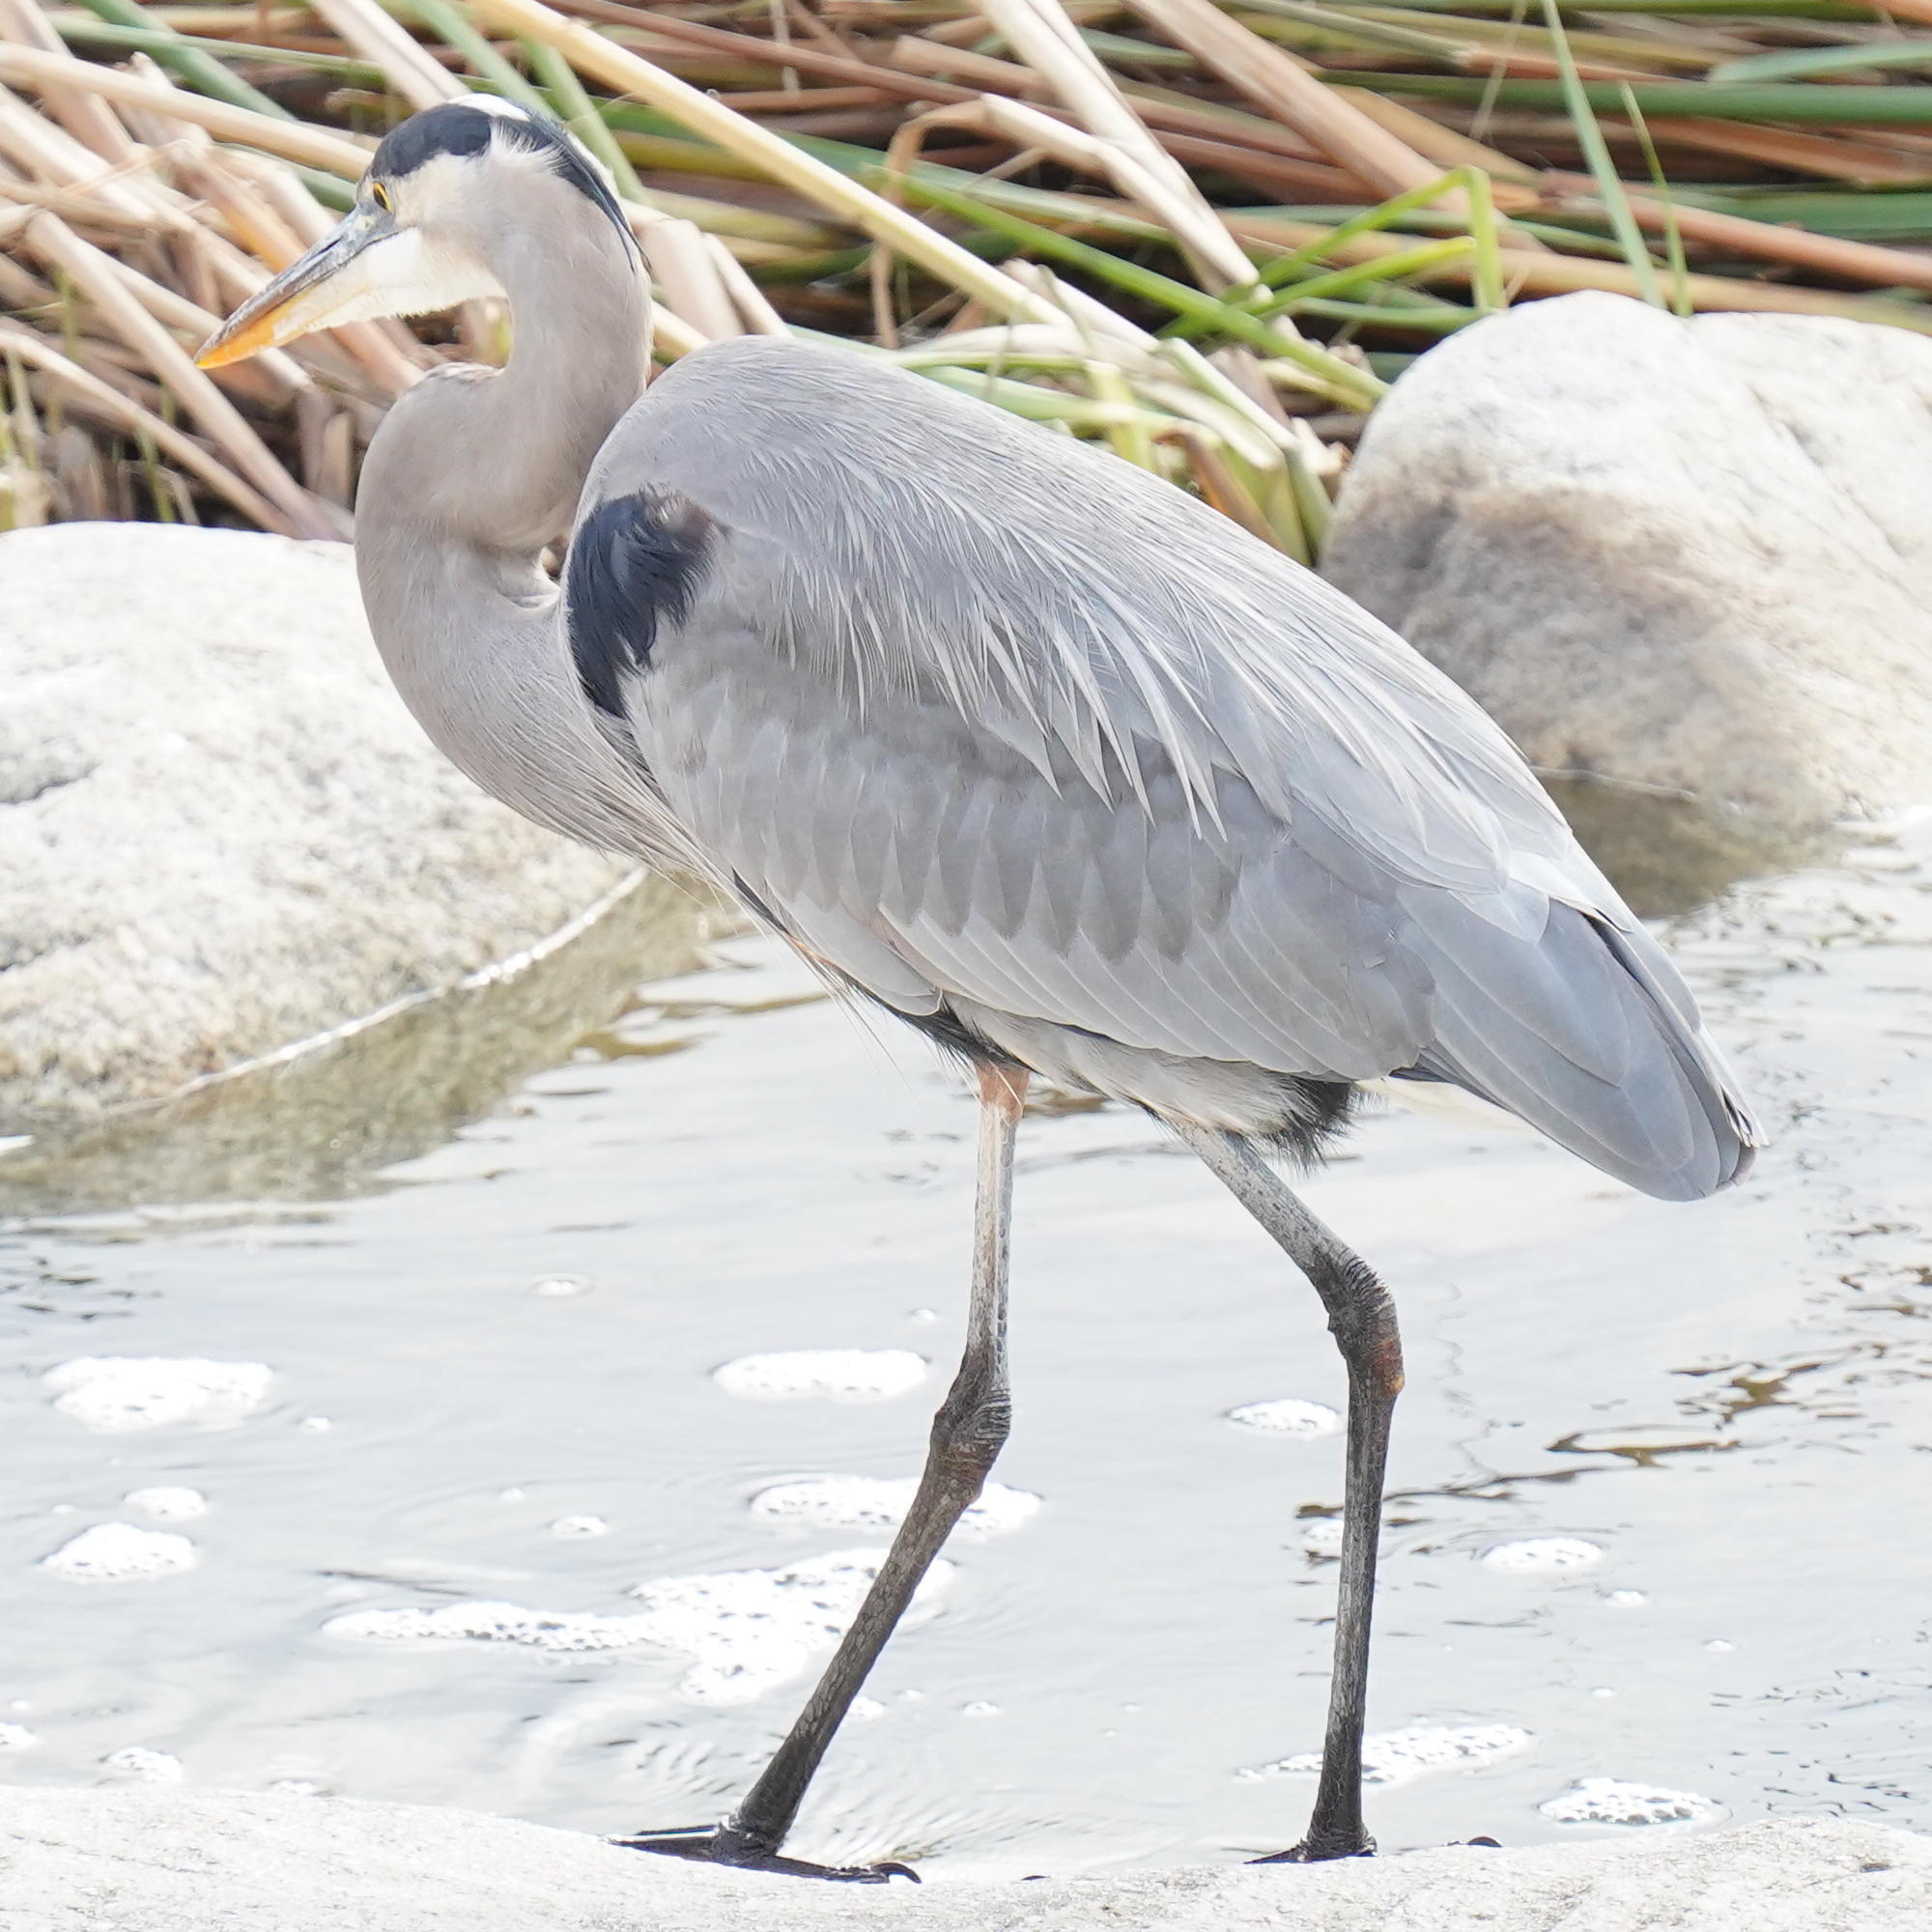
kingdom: Animalia
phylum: Chordata
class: Aves
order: Pelecaniformes
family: Ardeidae
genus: Ardea
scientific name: Ardea herodias
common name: Great blue heron
